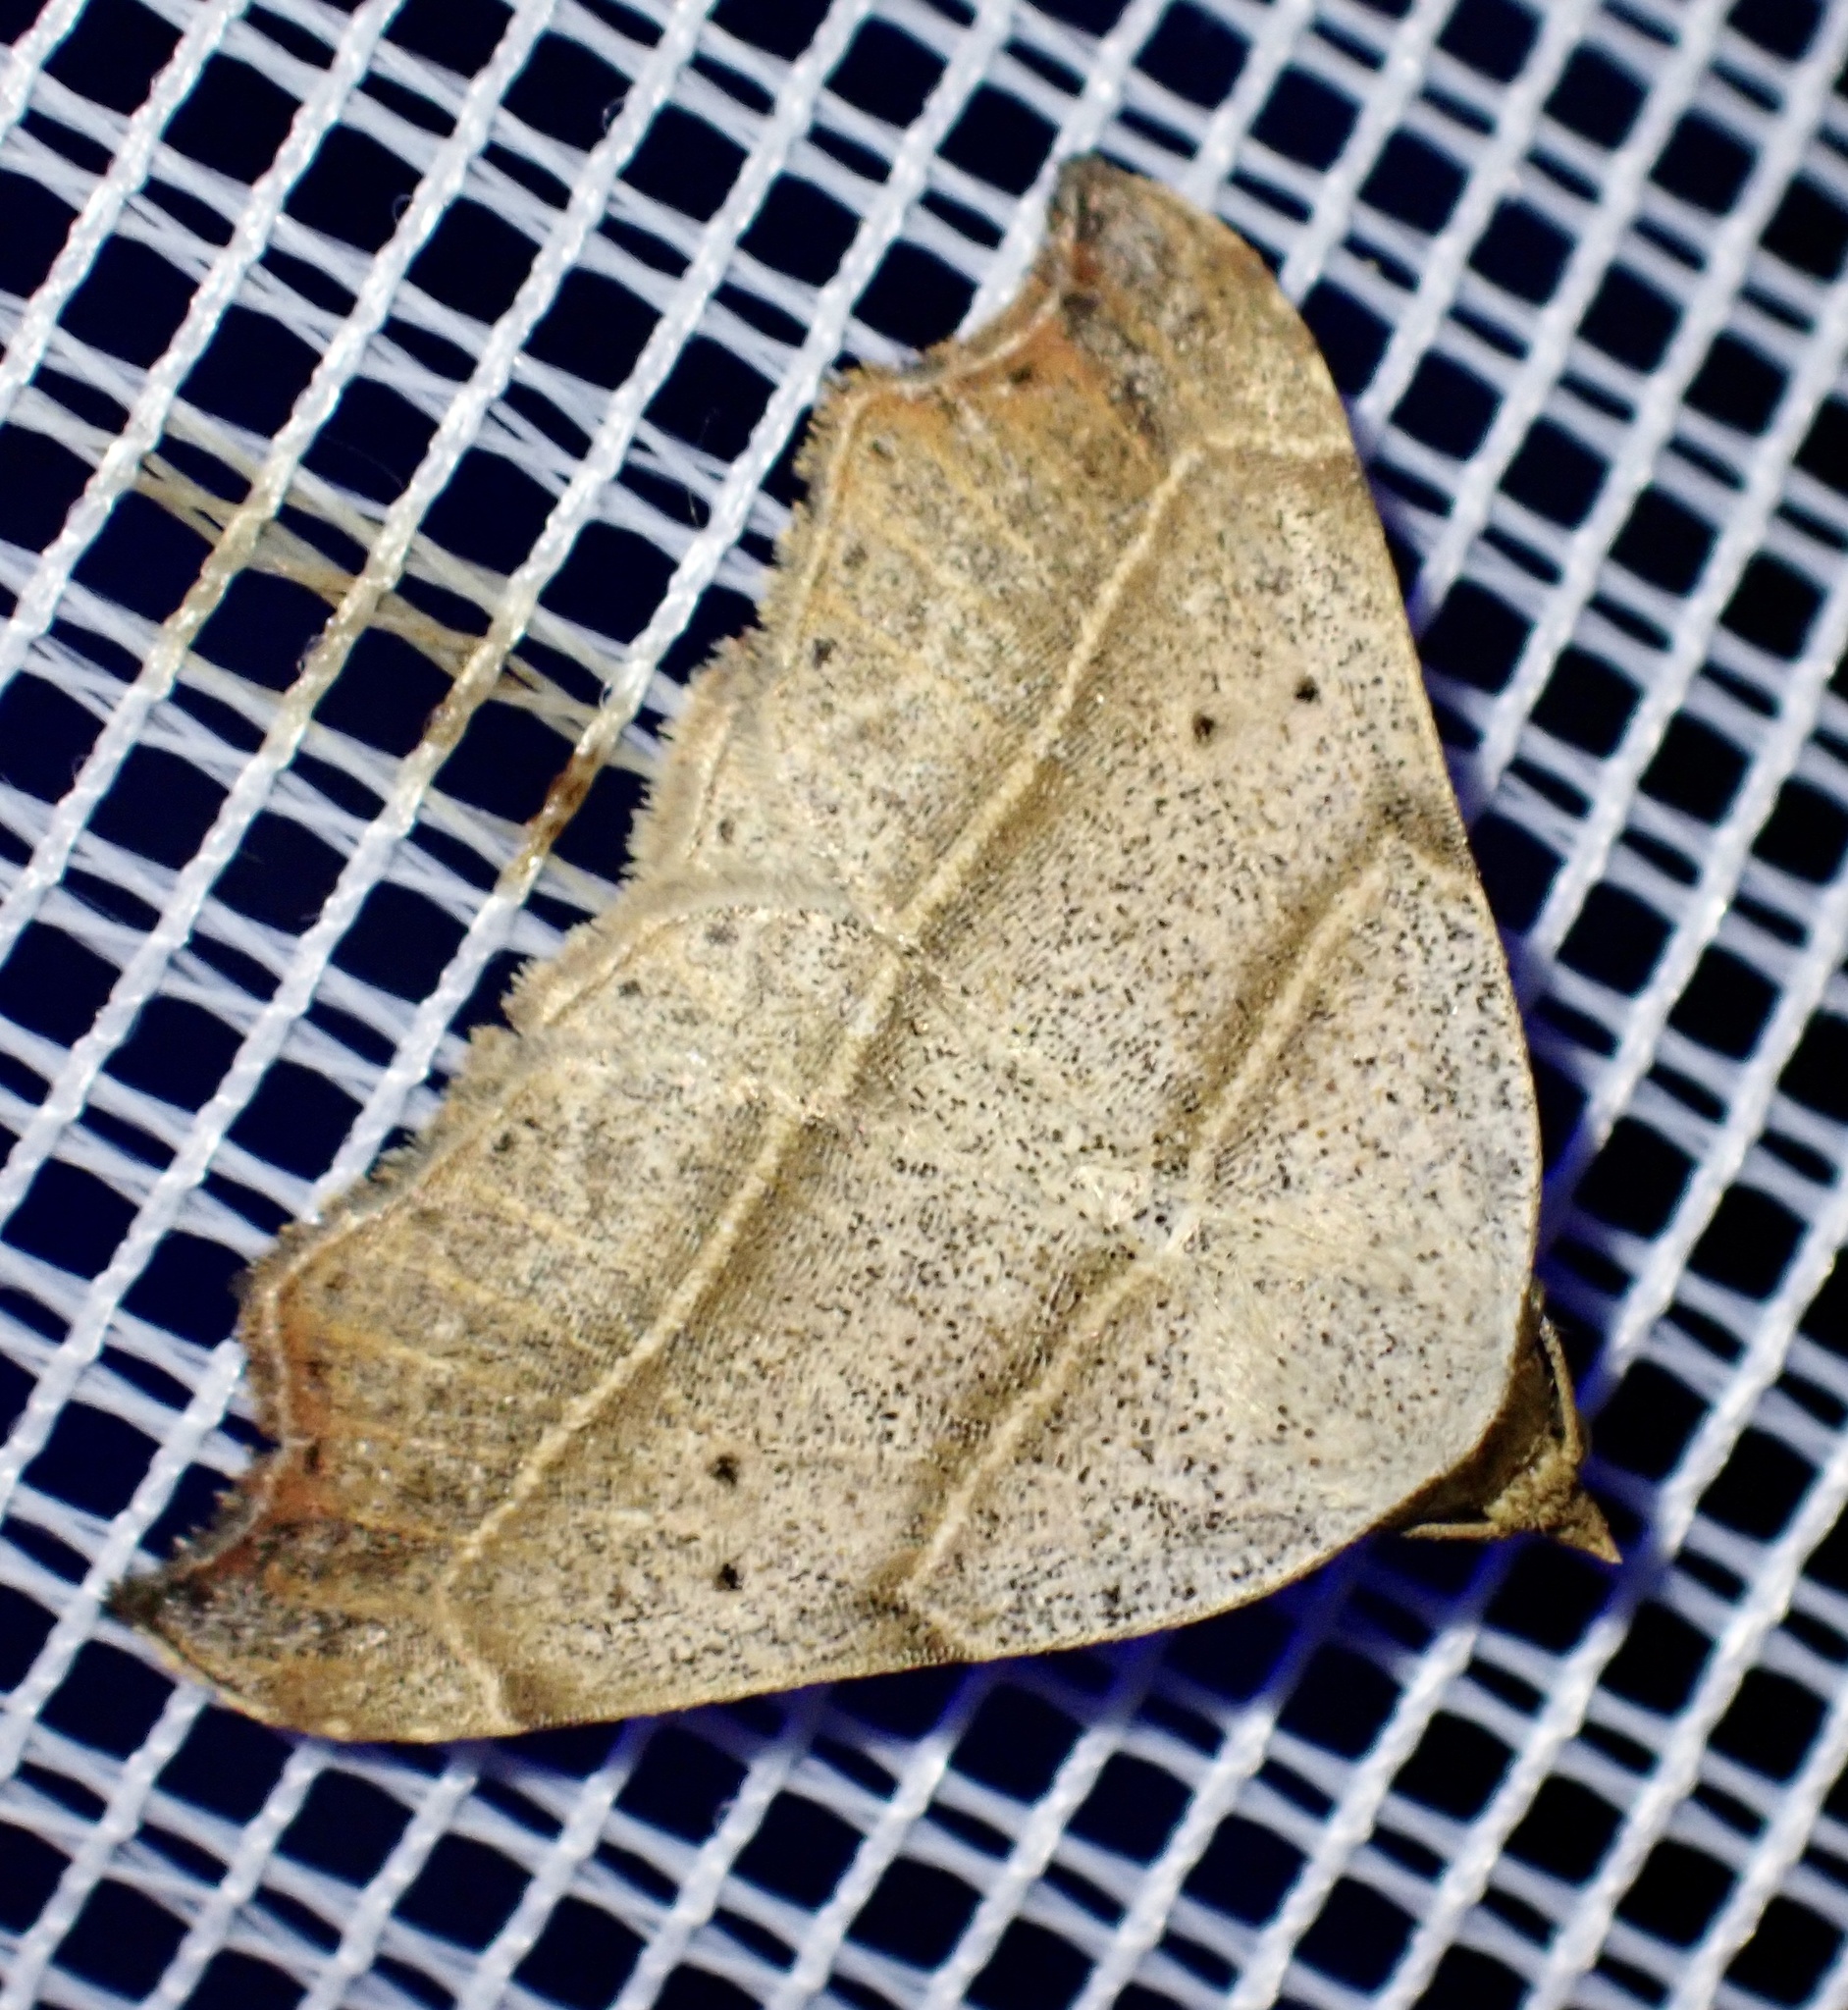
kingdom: Animalia
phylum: Arthropoda
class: Insecta
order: Lepidoptera
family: Erebidae
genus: Laspeyria
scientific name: Laspeyria flexula
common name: Beautiful hook-tip
